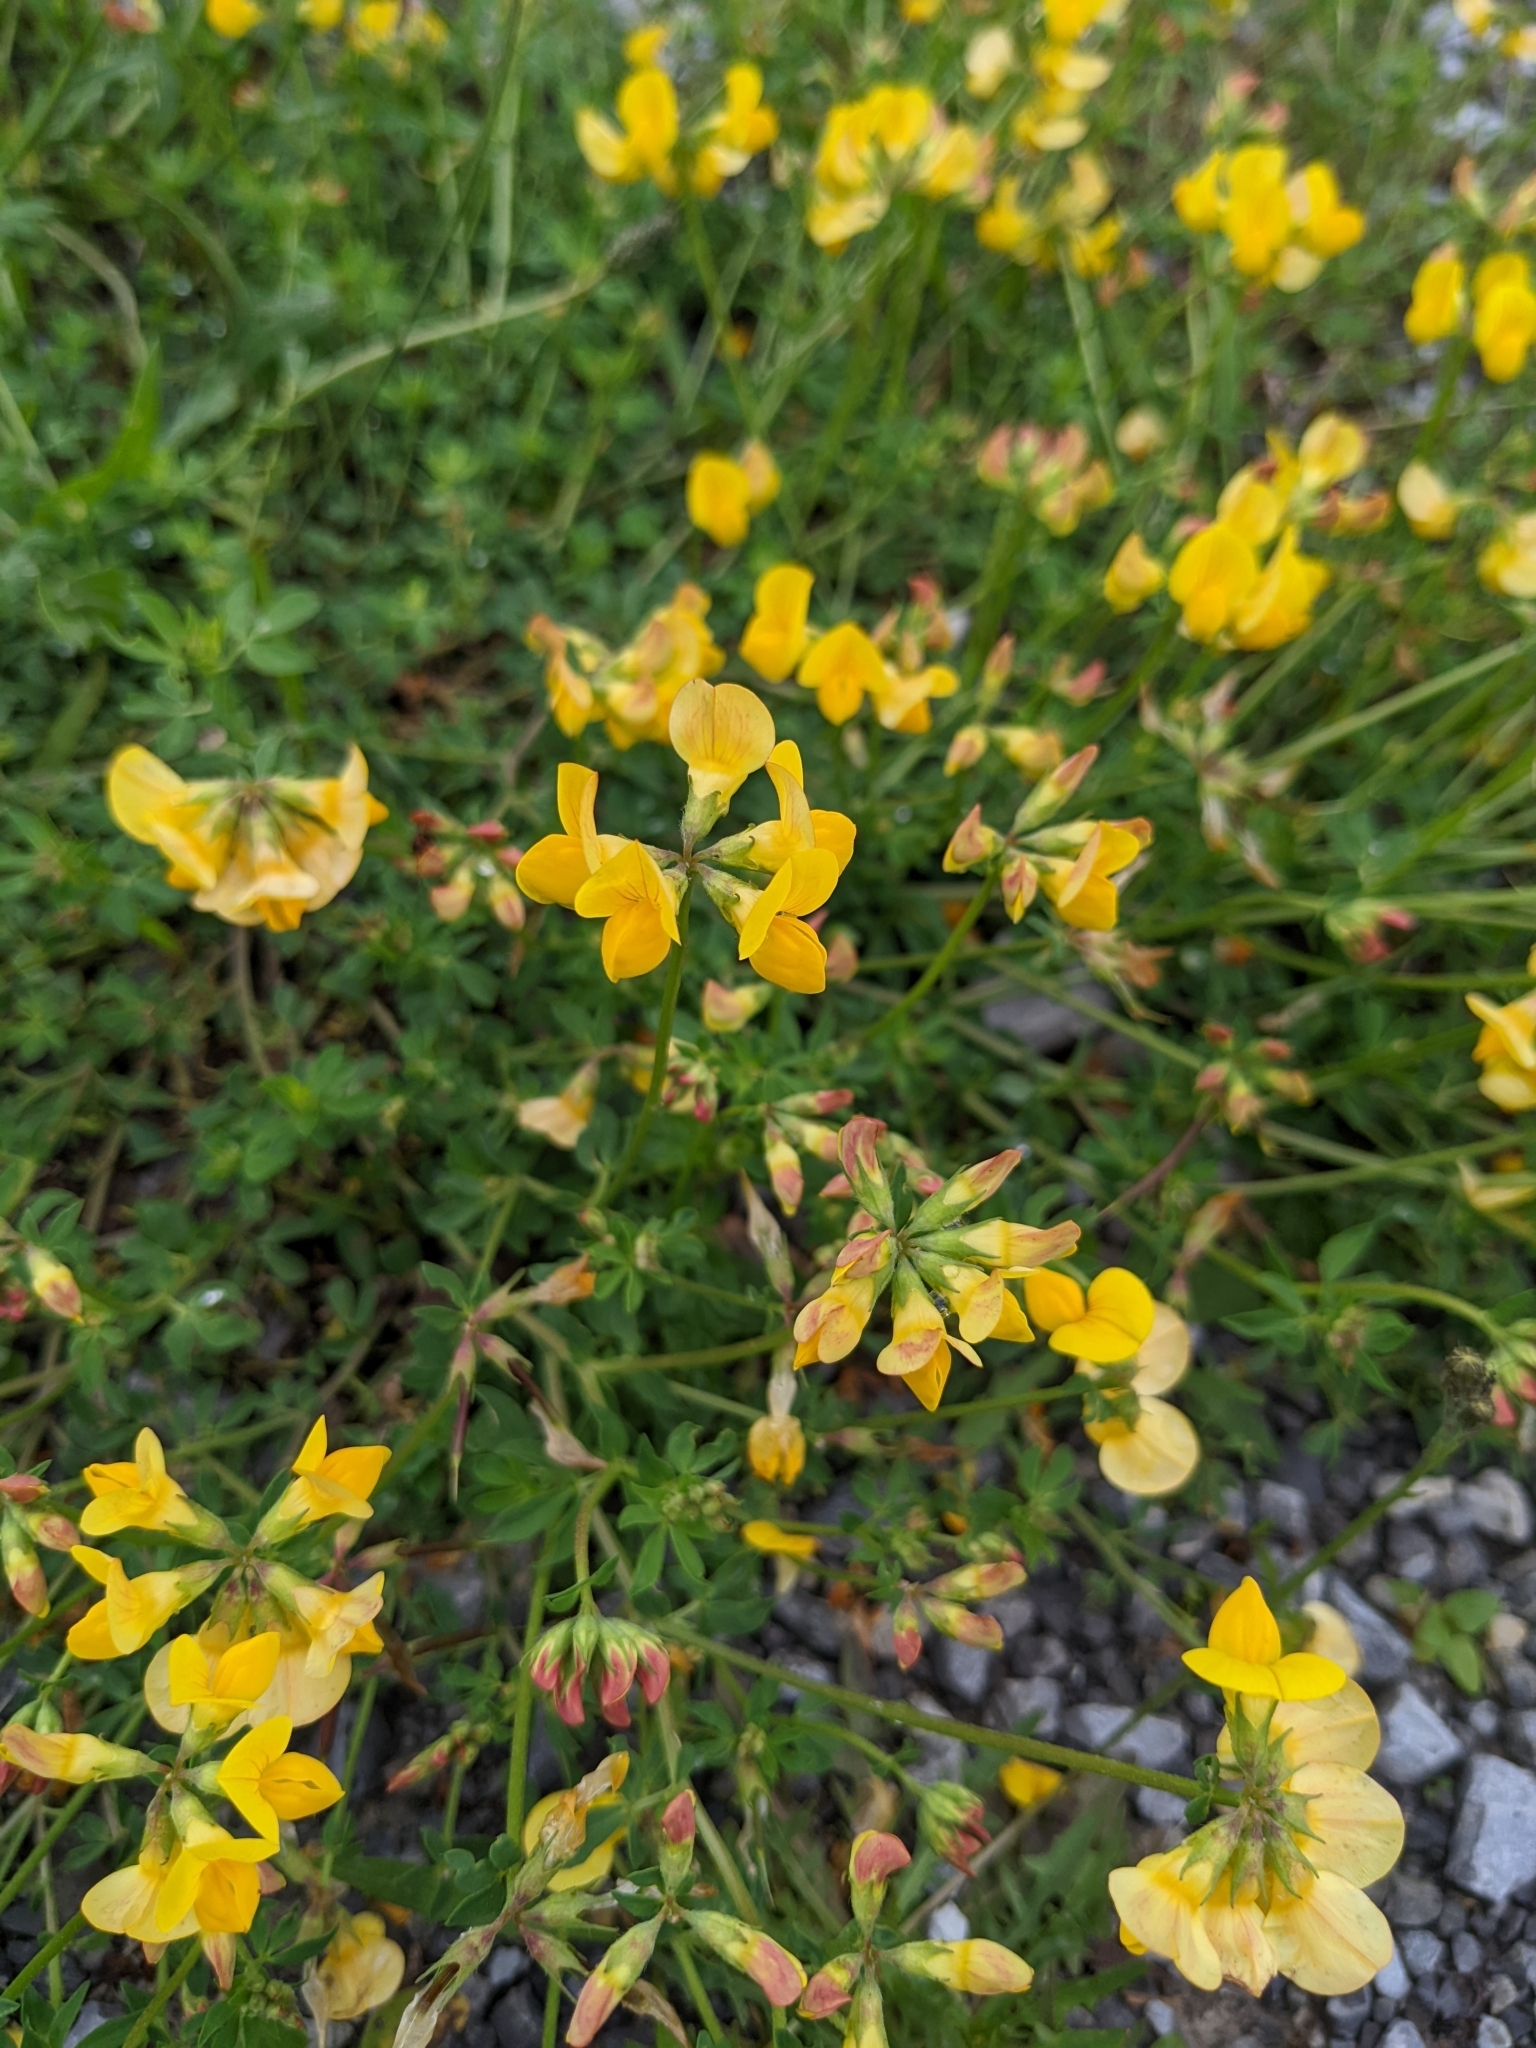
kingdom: Plantae
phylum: Tracheophyta
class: Magnoliopsida
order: Fabales
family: Fabaceae
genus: Lotus
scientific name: Lotus corniculatus
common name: Common bird's-foot-trefoil
